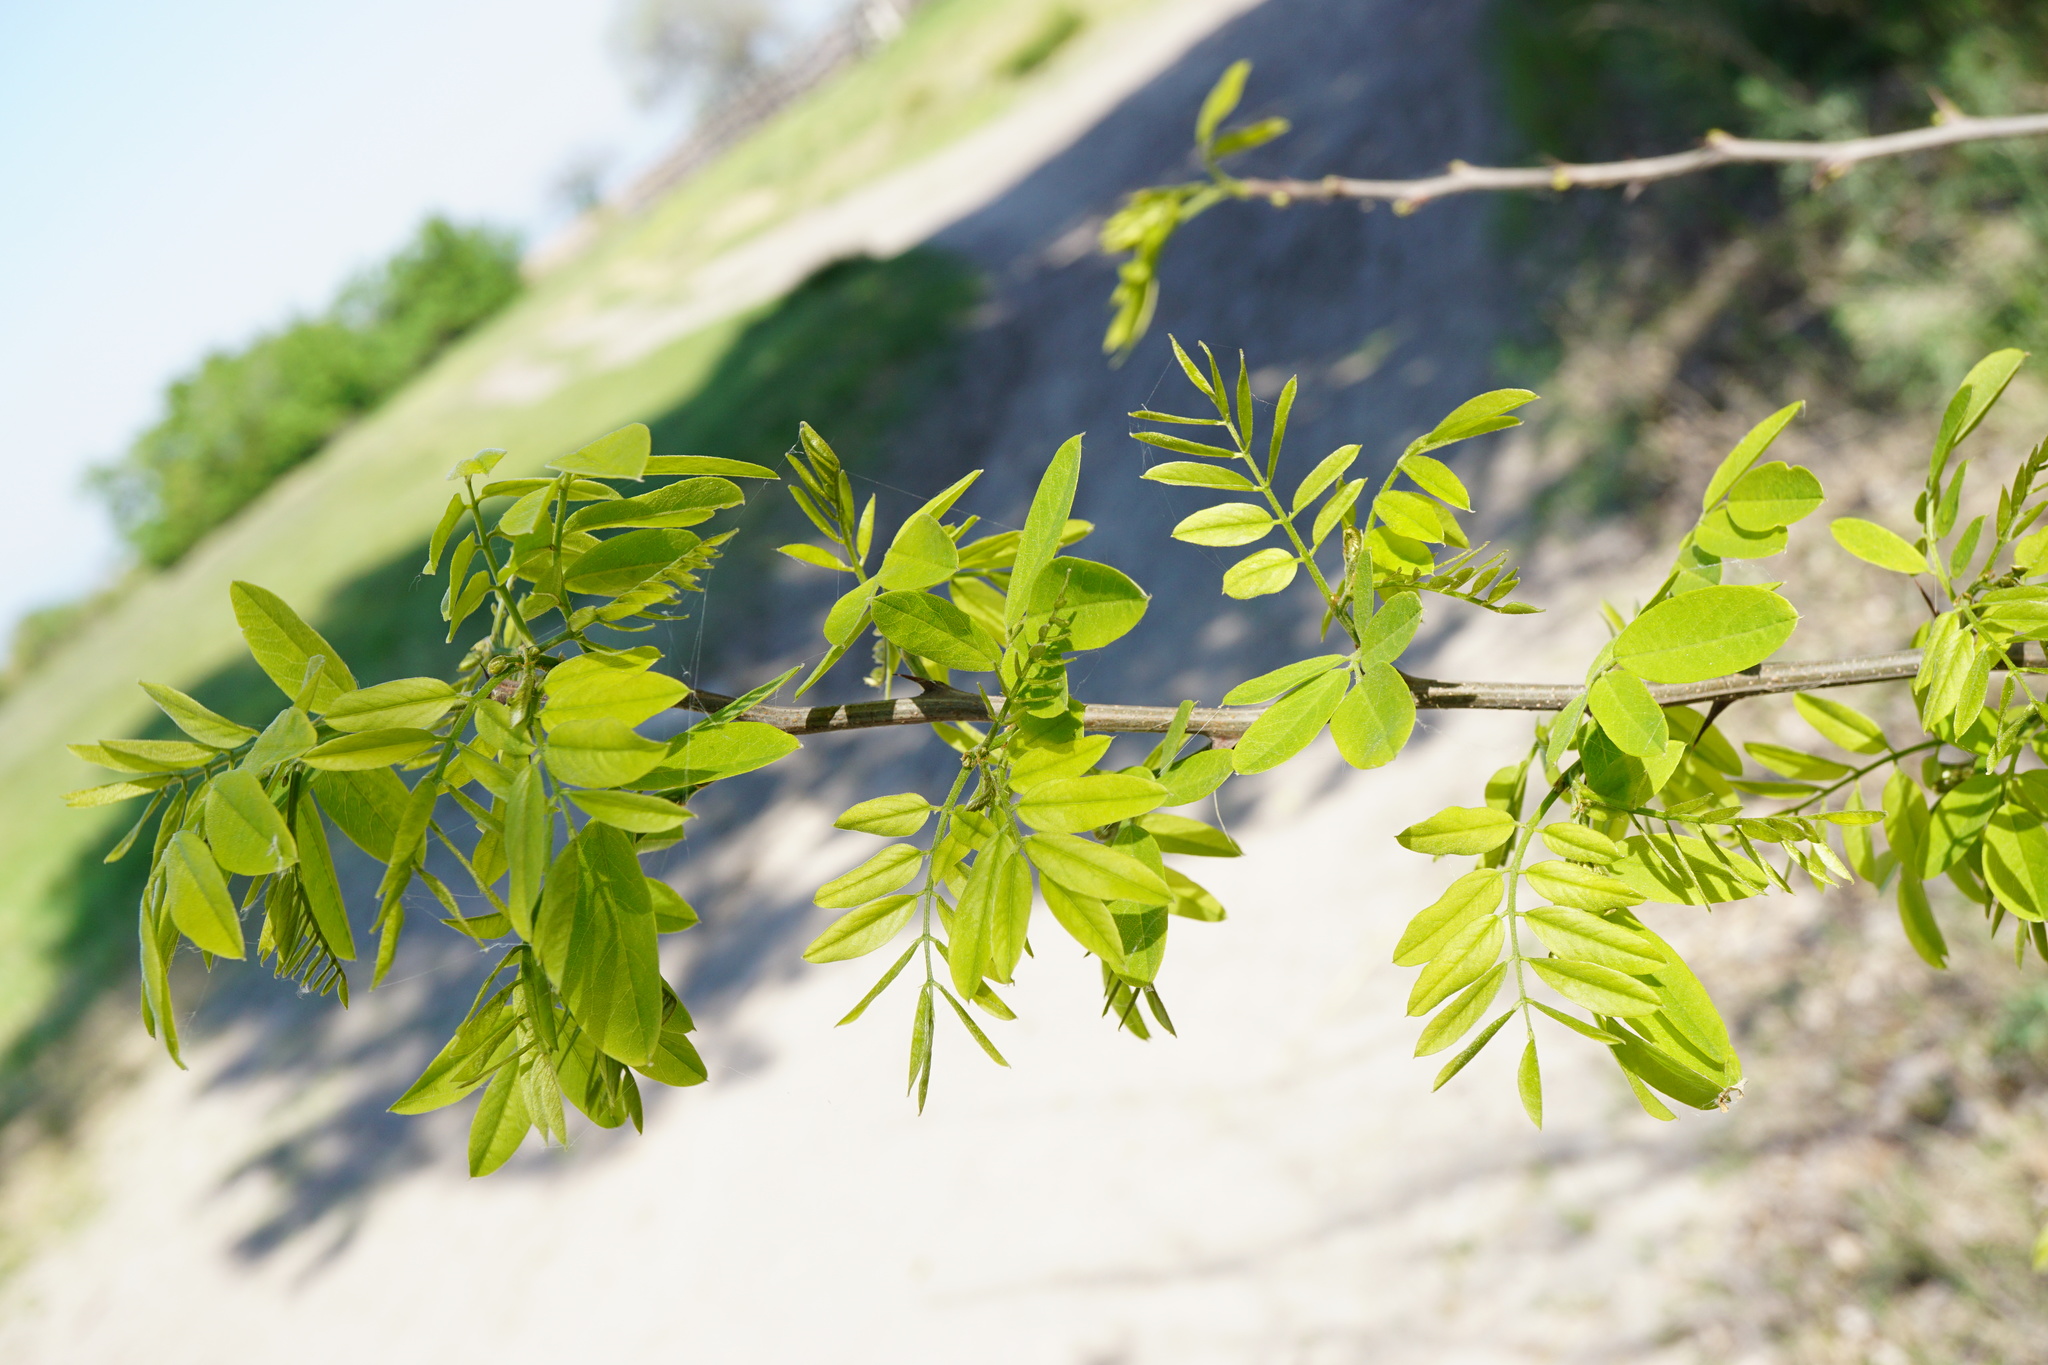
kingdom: Plantae
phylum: Tracheophyta
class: Magnoliopsida
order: Fabales
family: Fabaceae
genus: Robinia
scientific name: Robinia pseudoacacia
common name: Black locust
